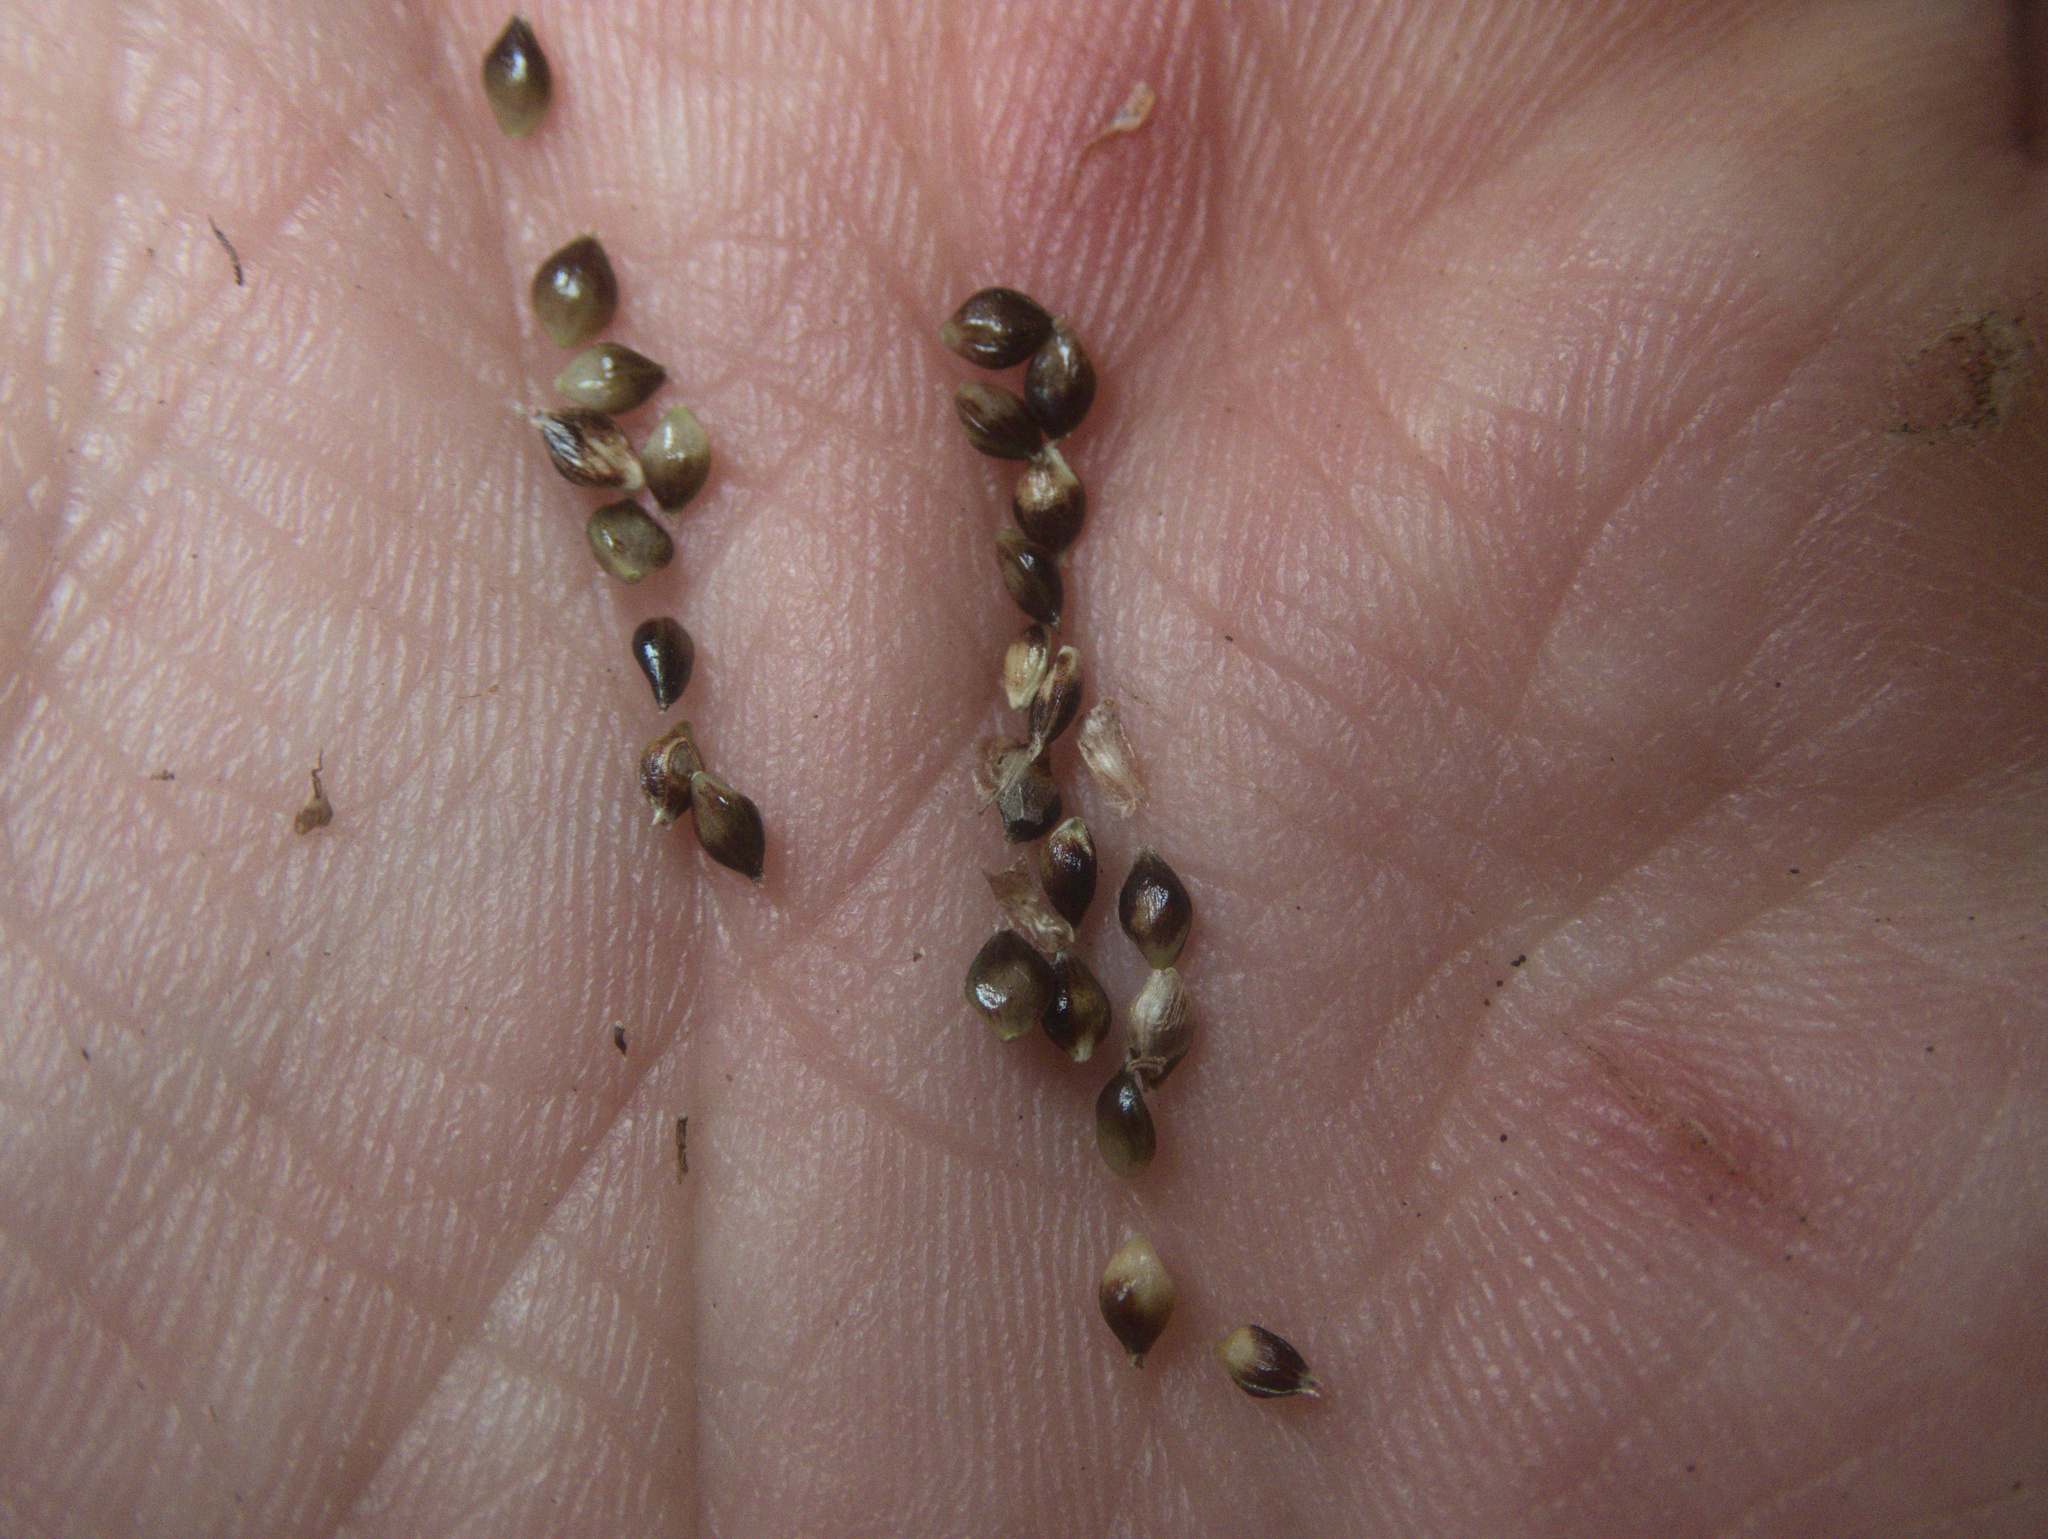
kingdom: Plantae
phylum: Tracheophyta
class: Liliopsida
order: Poales
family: Cyperaceae
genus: Carex
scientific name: Carex flagellifera
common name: Glen murray tussock
